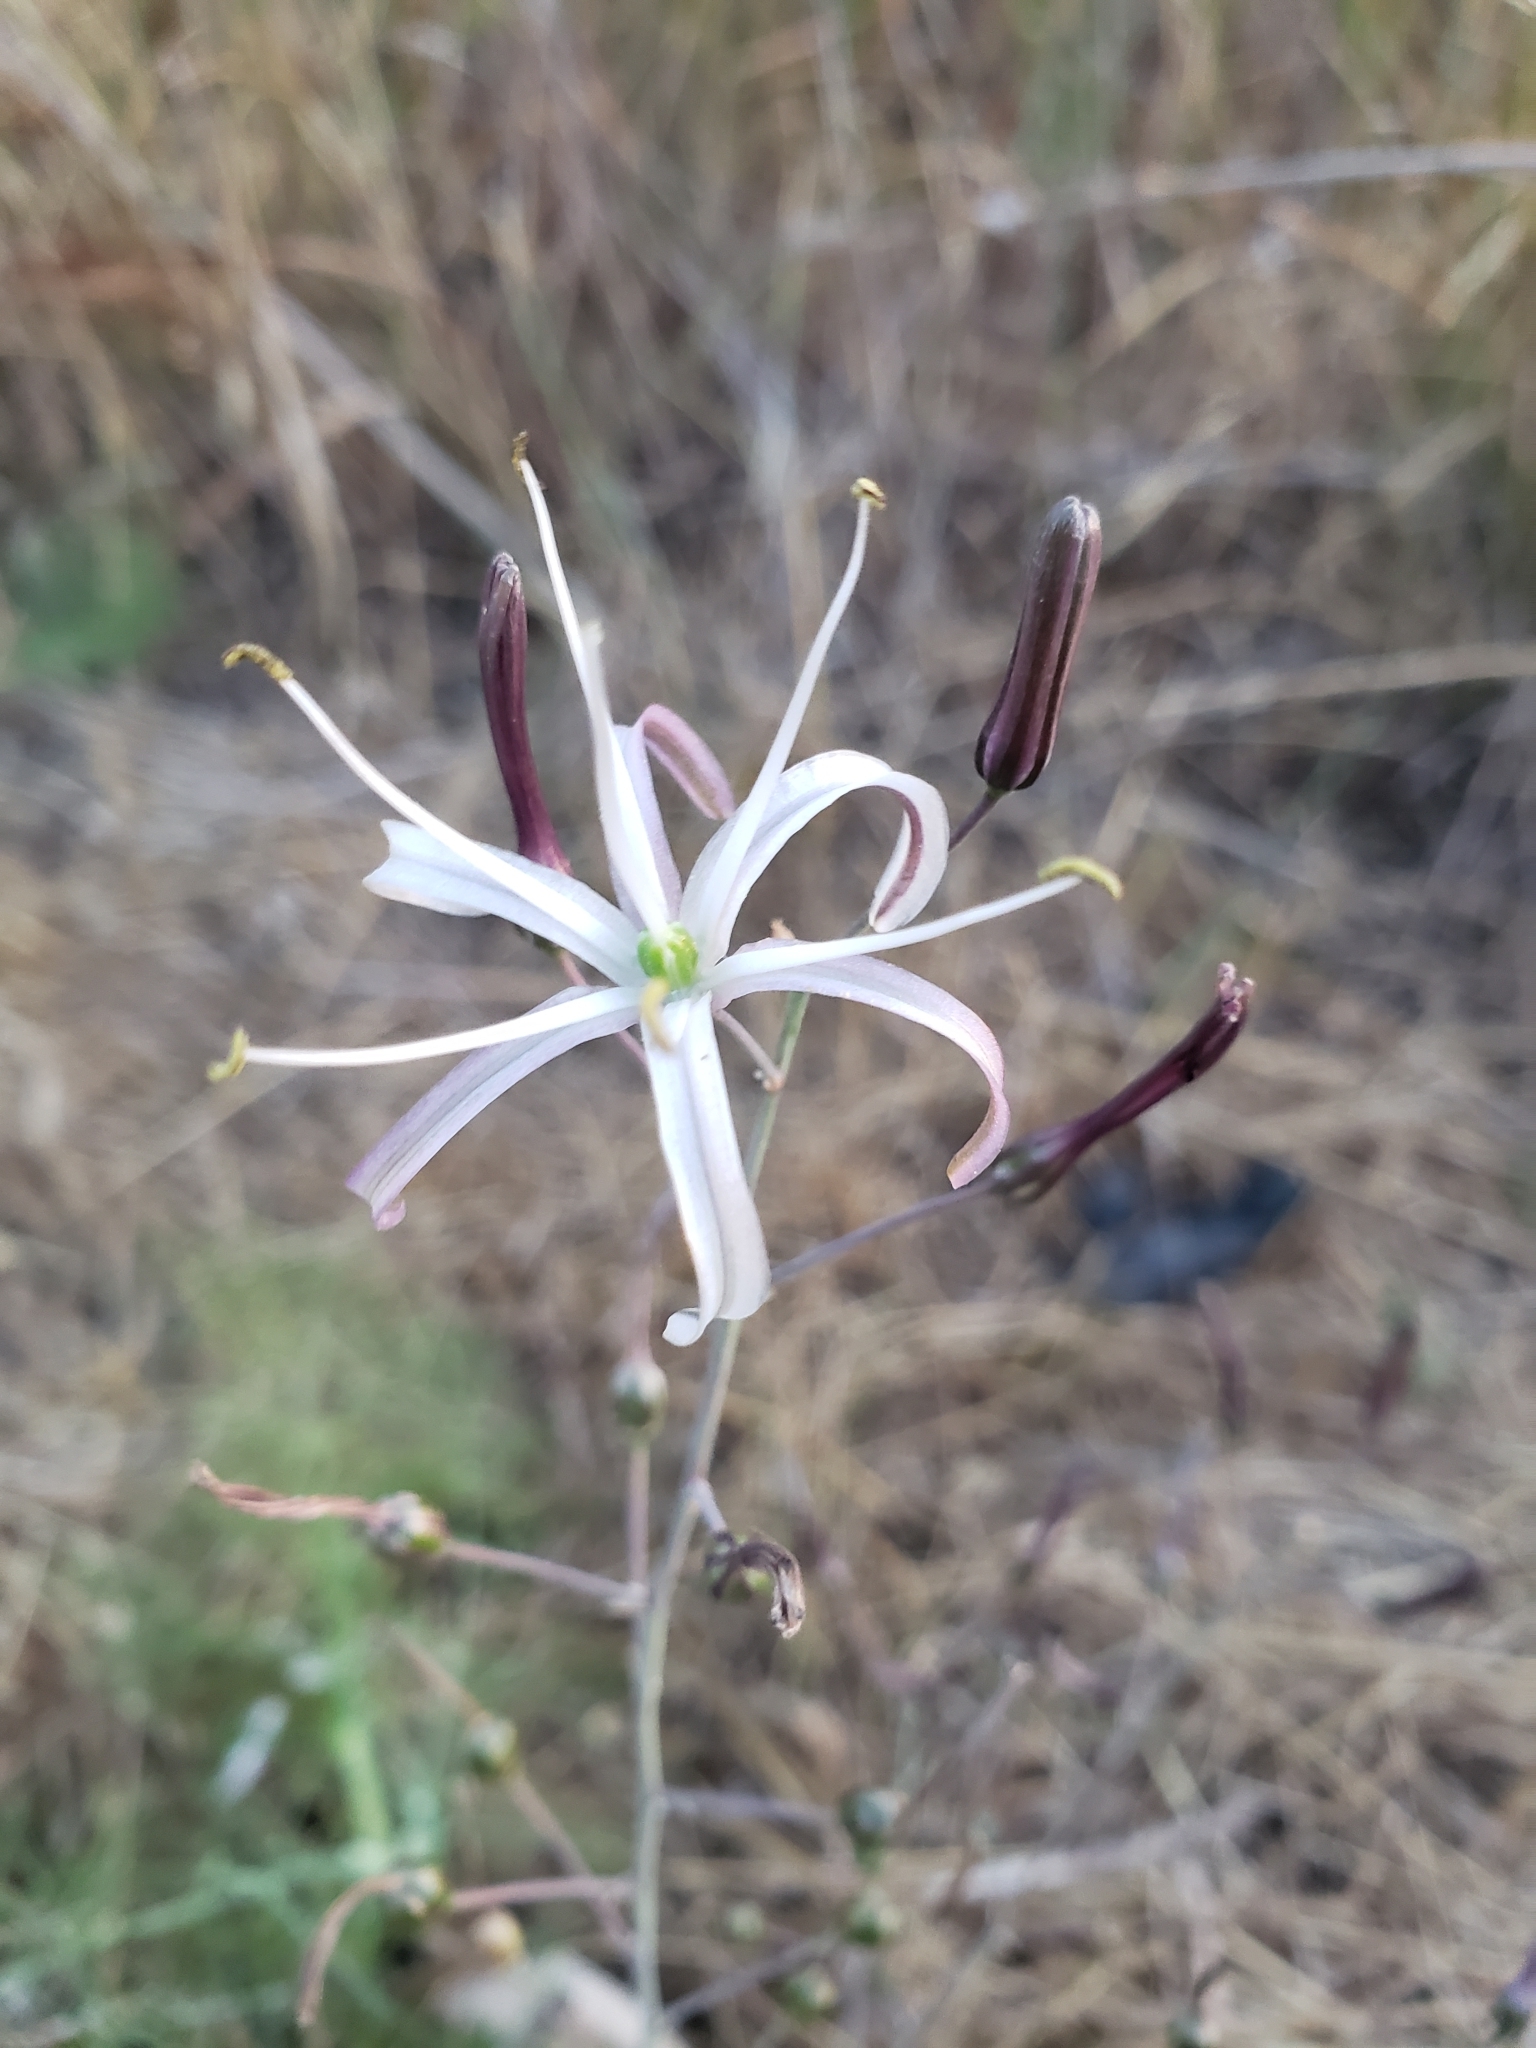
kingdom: Plantae
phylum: Tracheophyta
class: Liliopsida
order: Asparagales
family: Asparagaceae
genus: Chlorogalum
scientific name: Chlorogalum pomeridianum
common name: Amole
